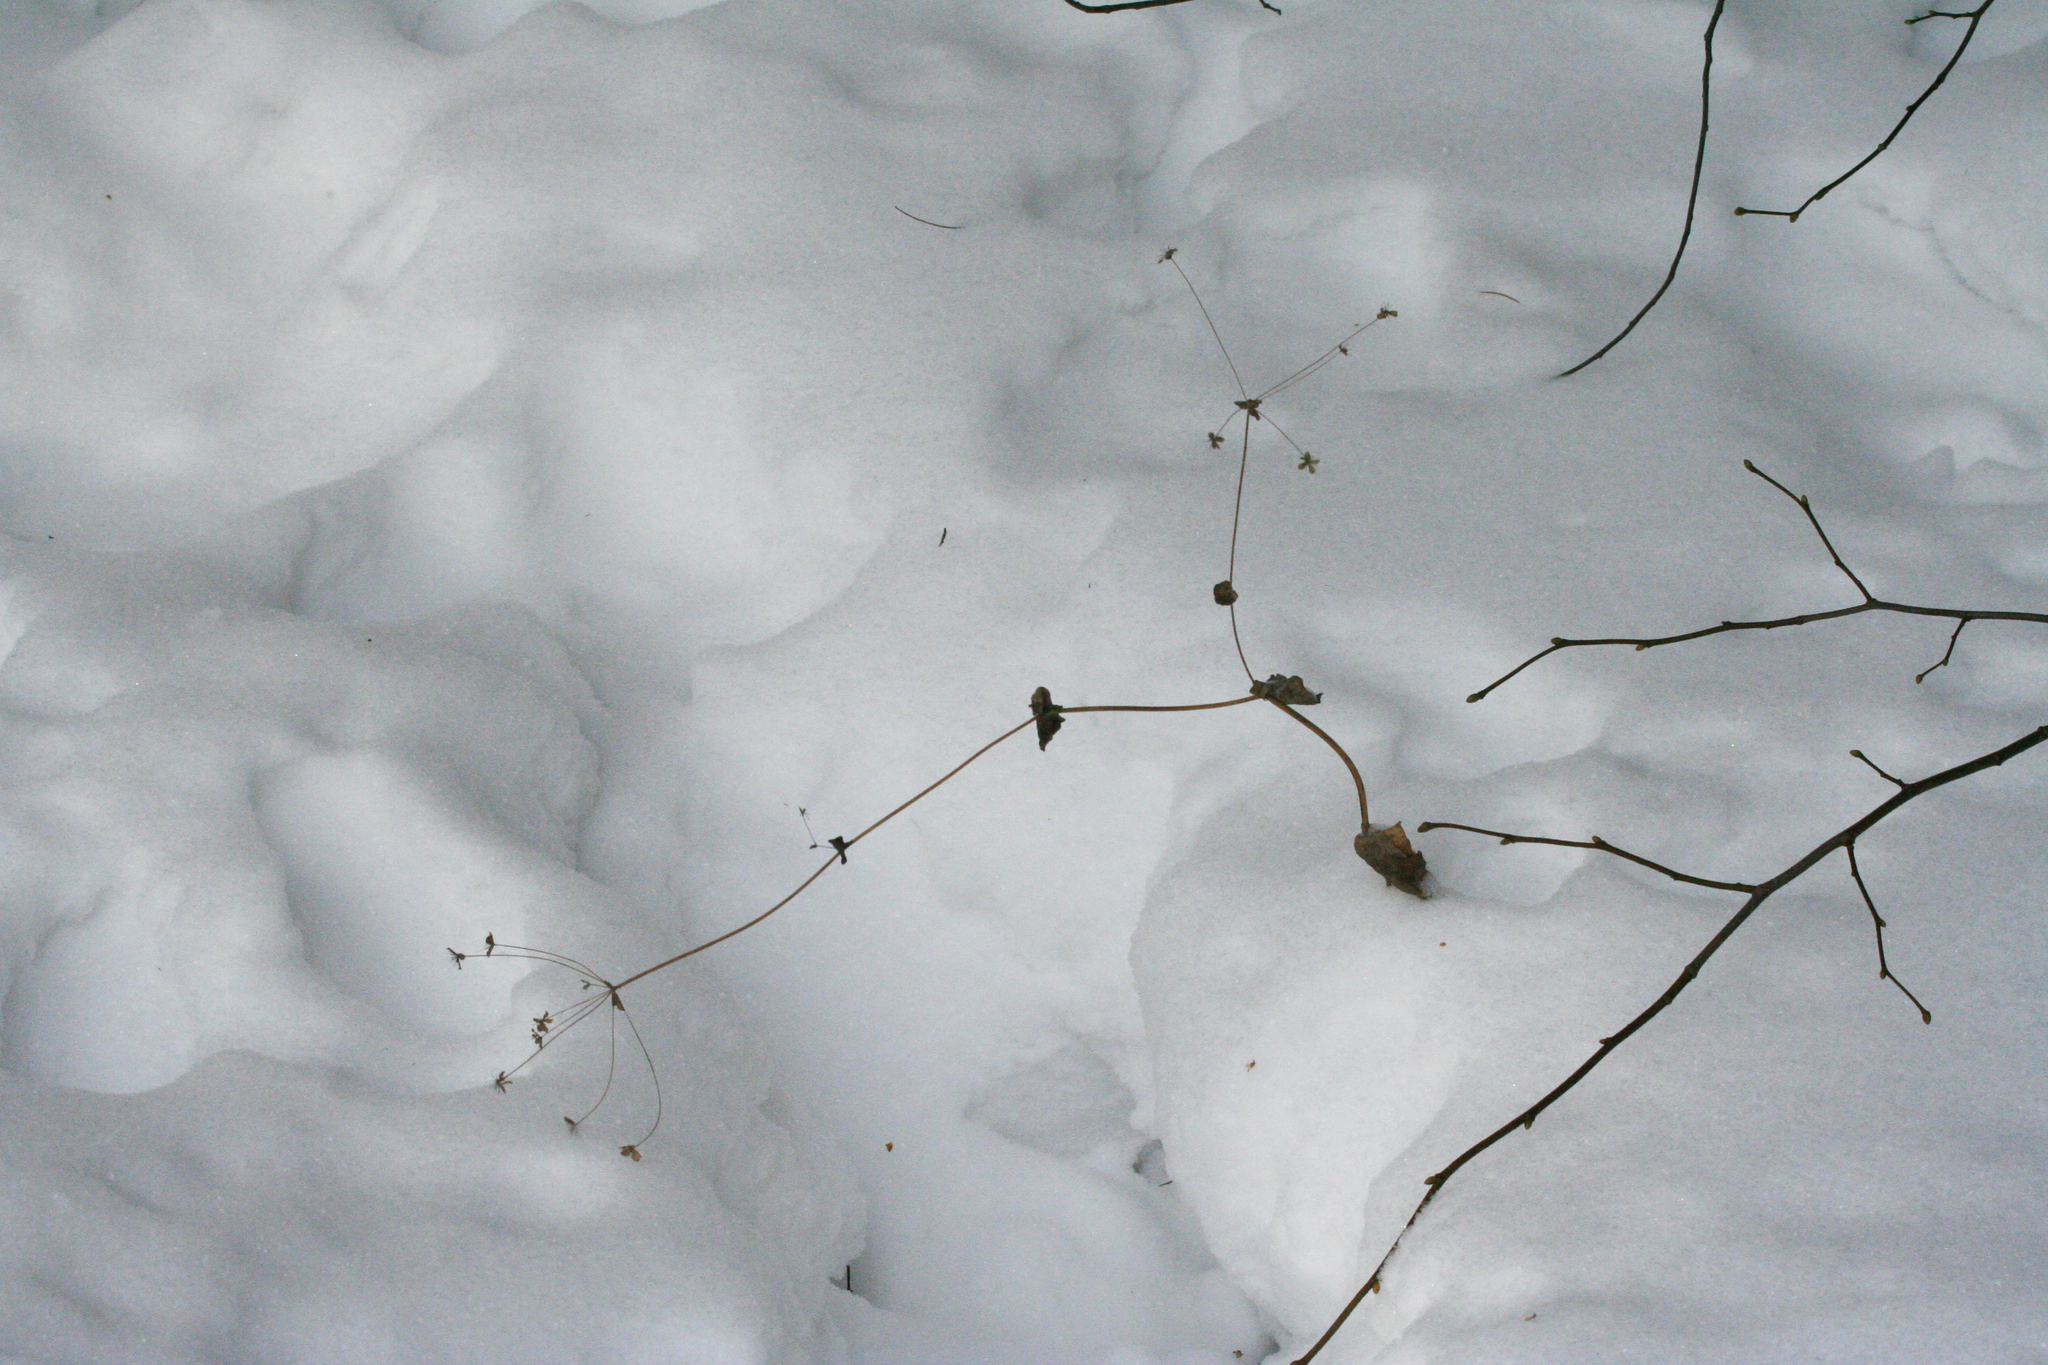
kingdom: Plantae
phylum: Tracheophyta
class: Magnoliopsida
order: Apiales
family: Apiaceae
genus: Bupleurum
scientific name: Bupleurum aureum
